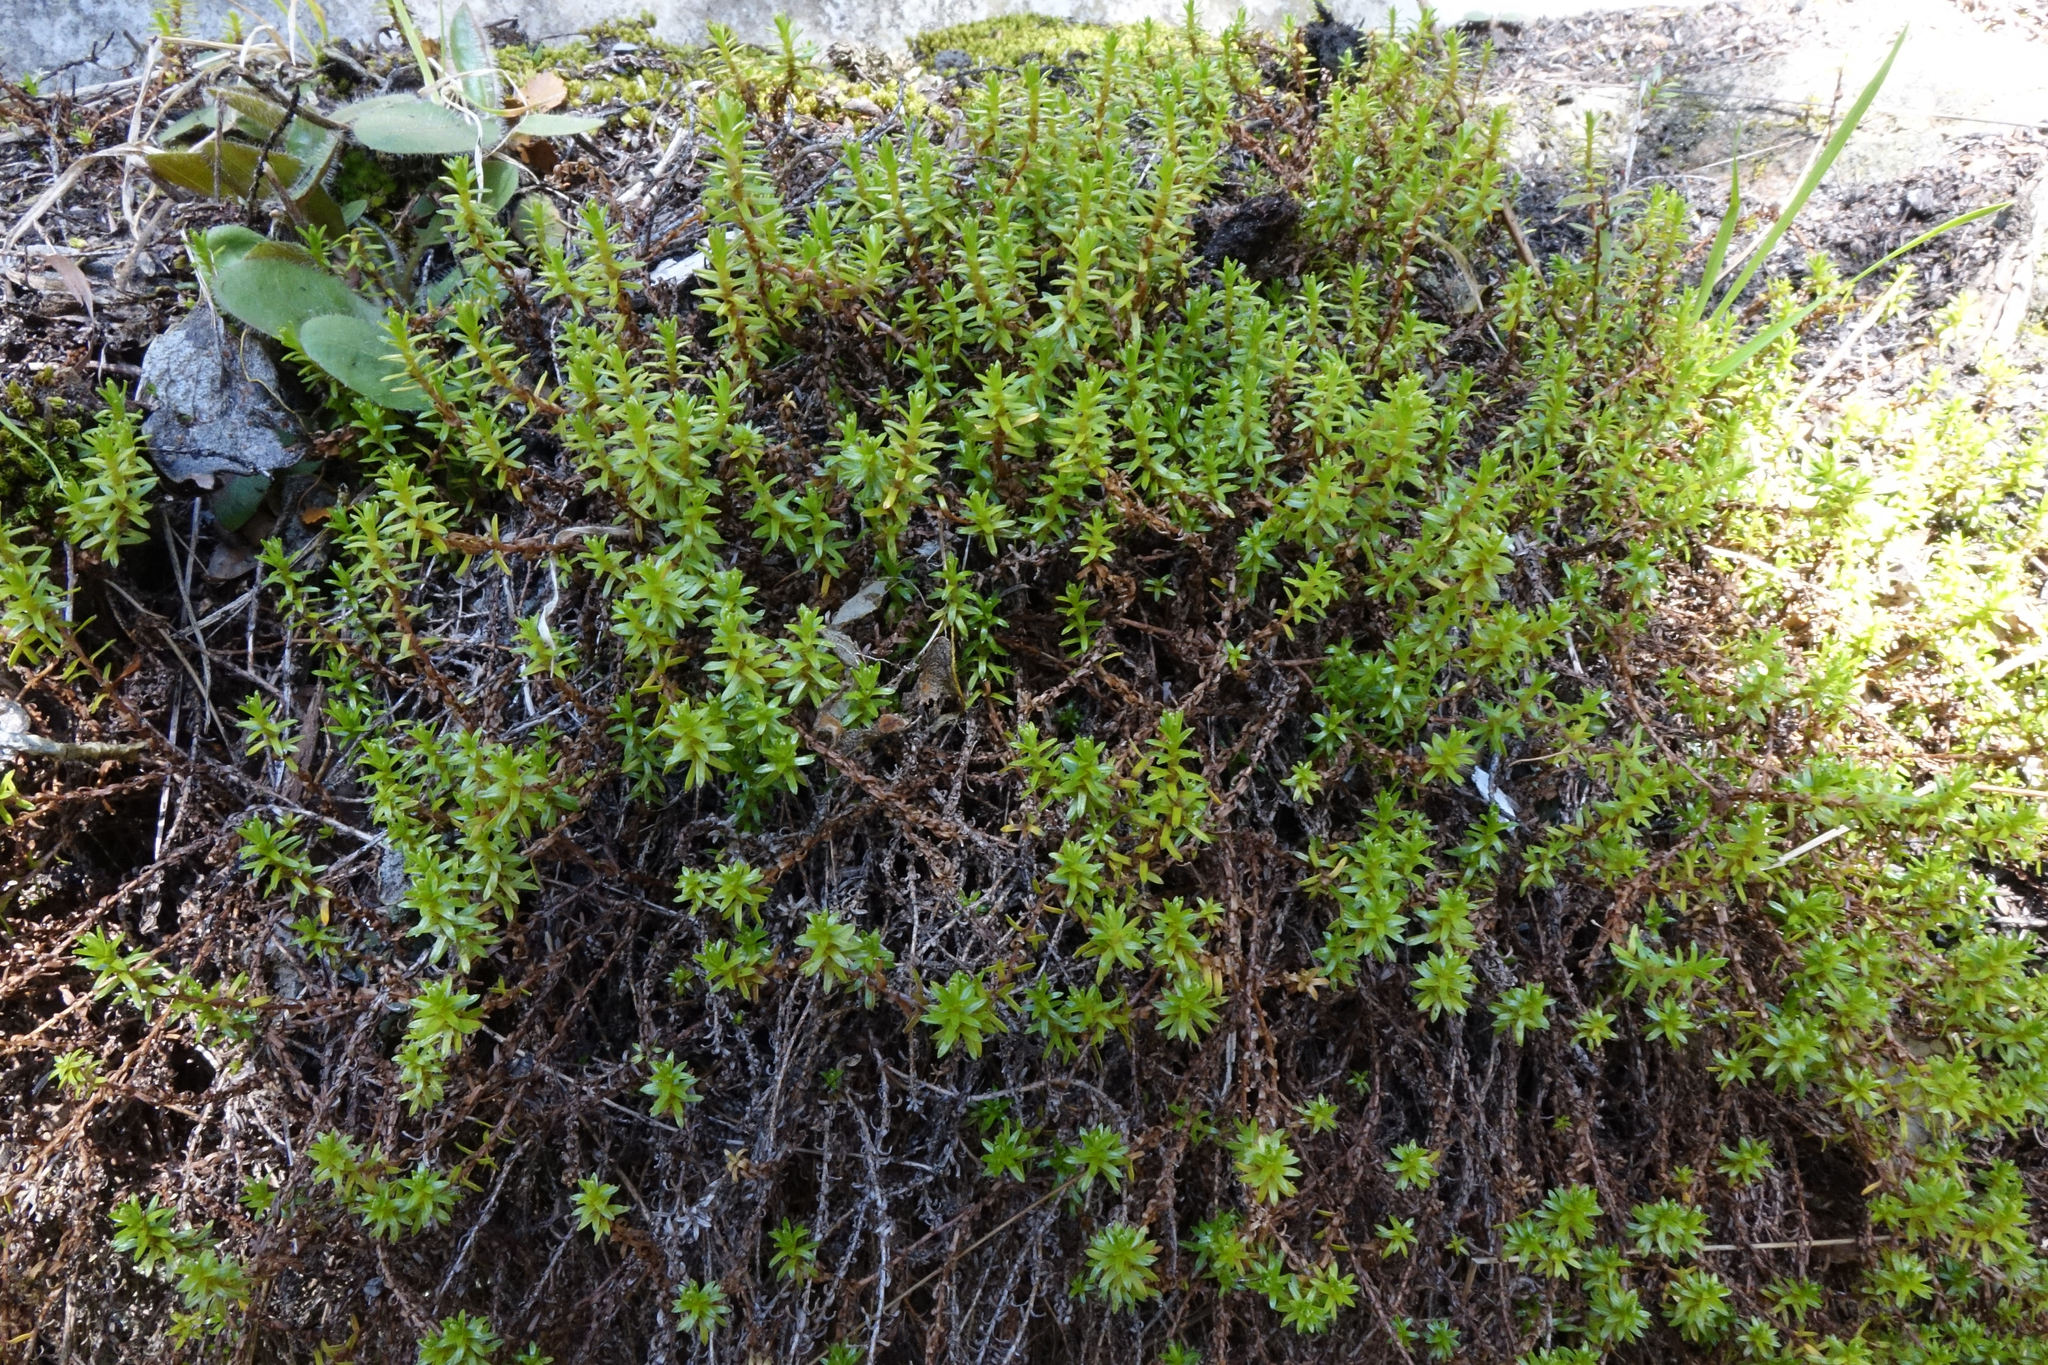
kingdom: Plantae
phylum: Tracheophyta
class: Magnoliopsida
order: Asterales
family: Asteraceae
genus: Raoulia
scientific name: Raoulia glabra
